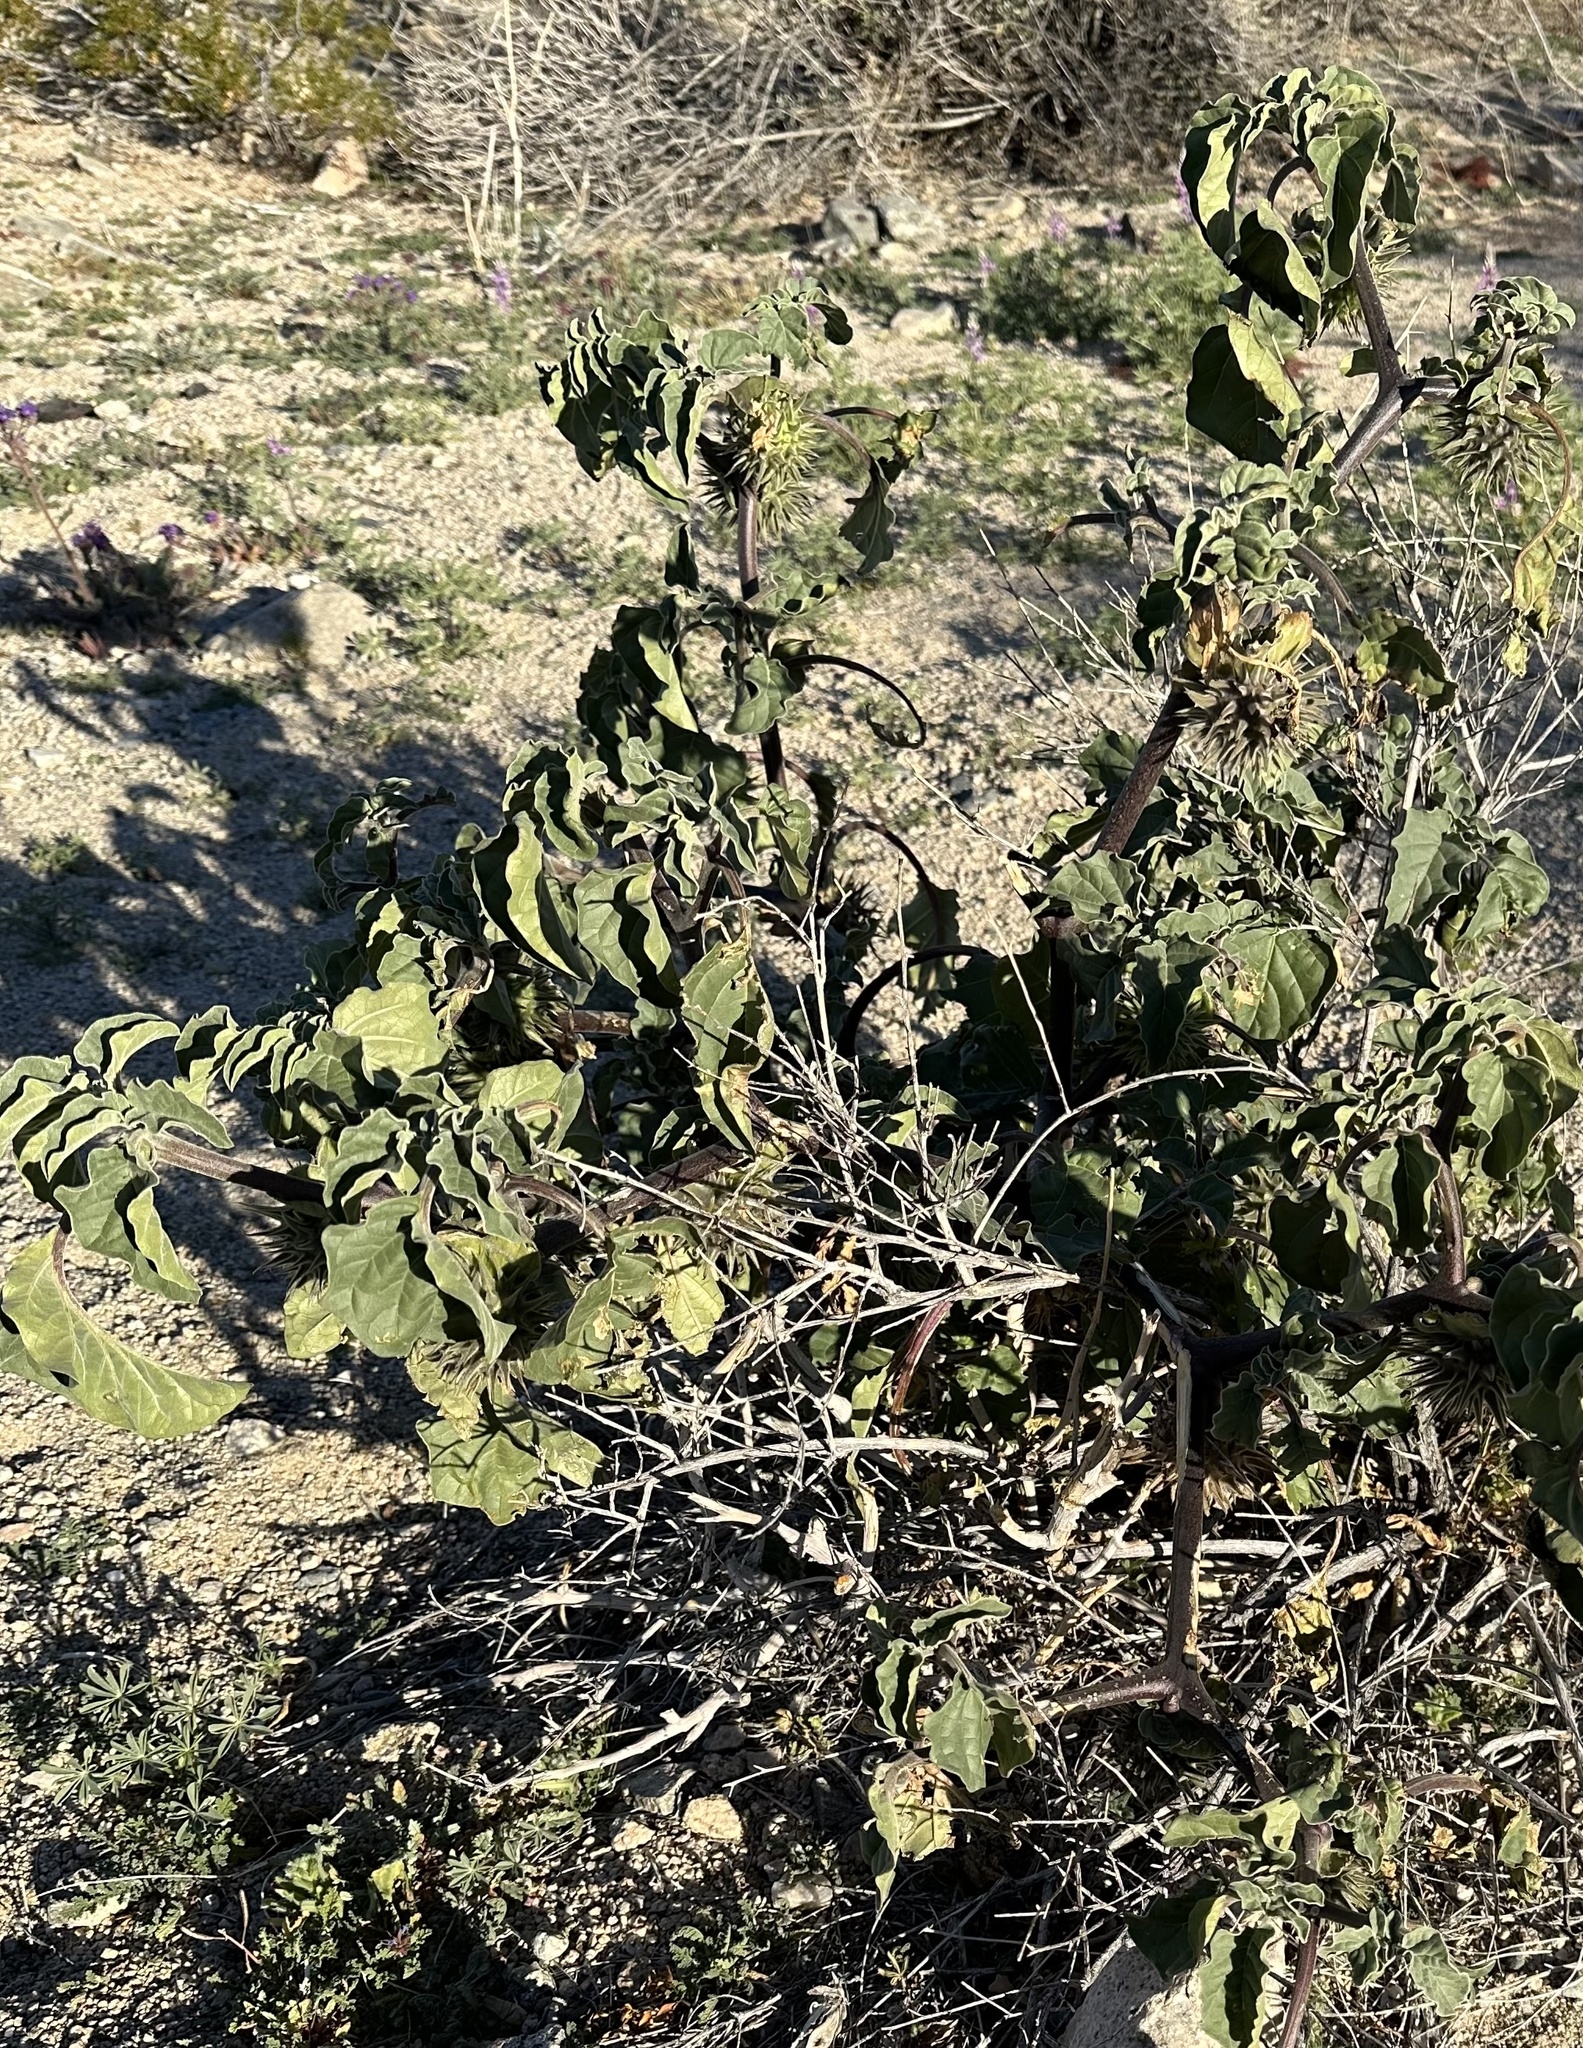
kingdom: Plantae
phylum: Tracheophyta
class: Magnoliopsida
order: Solanales
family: Solanaceae
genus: Datura
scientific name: Datura discolor
